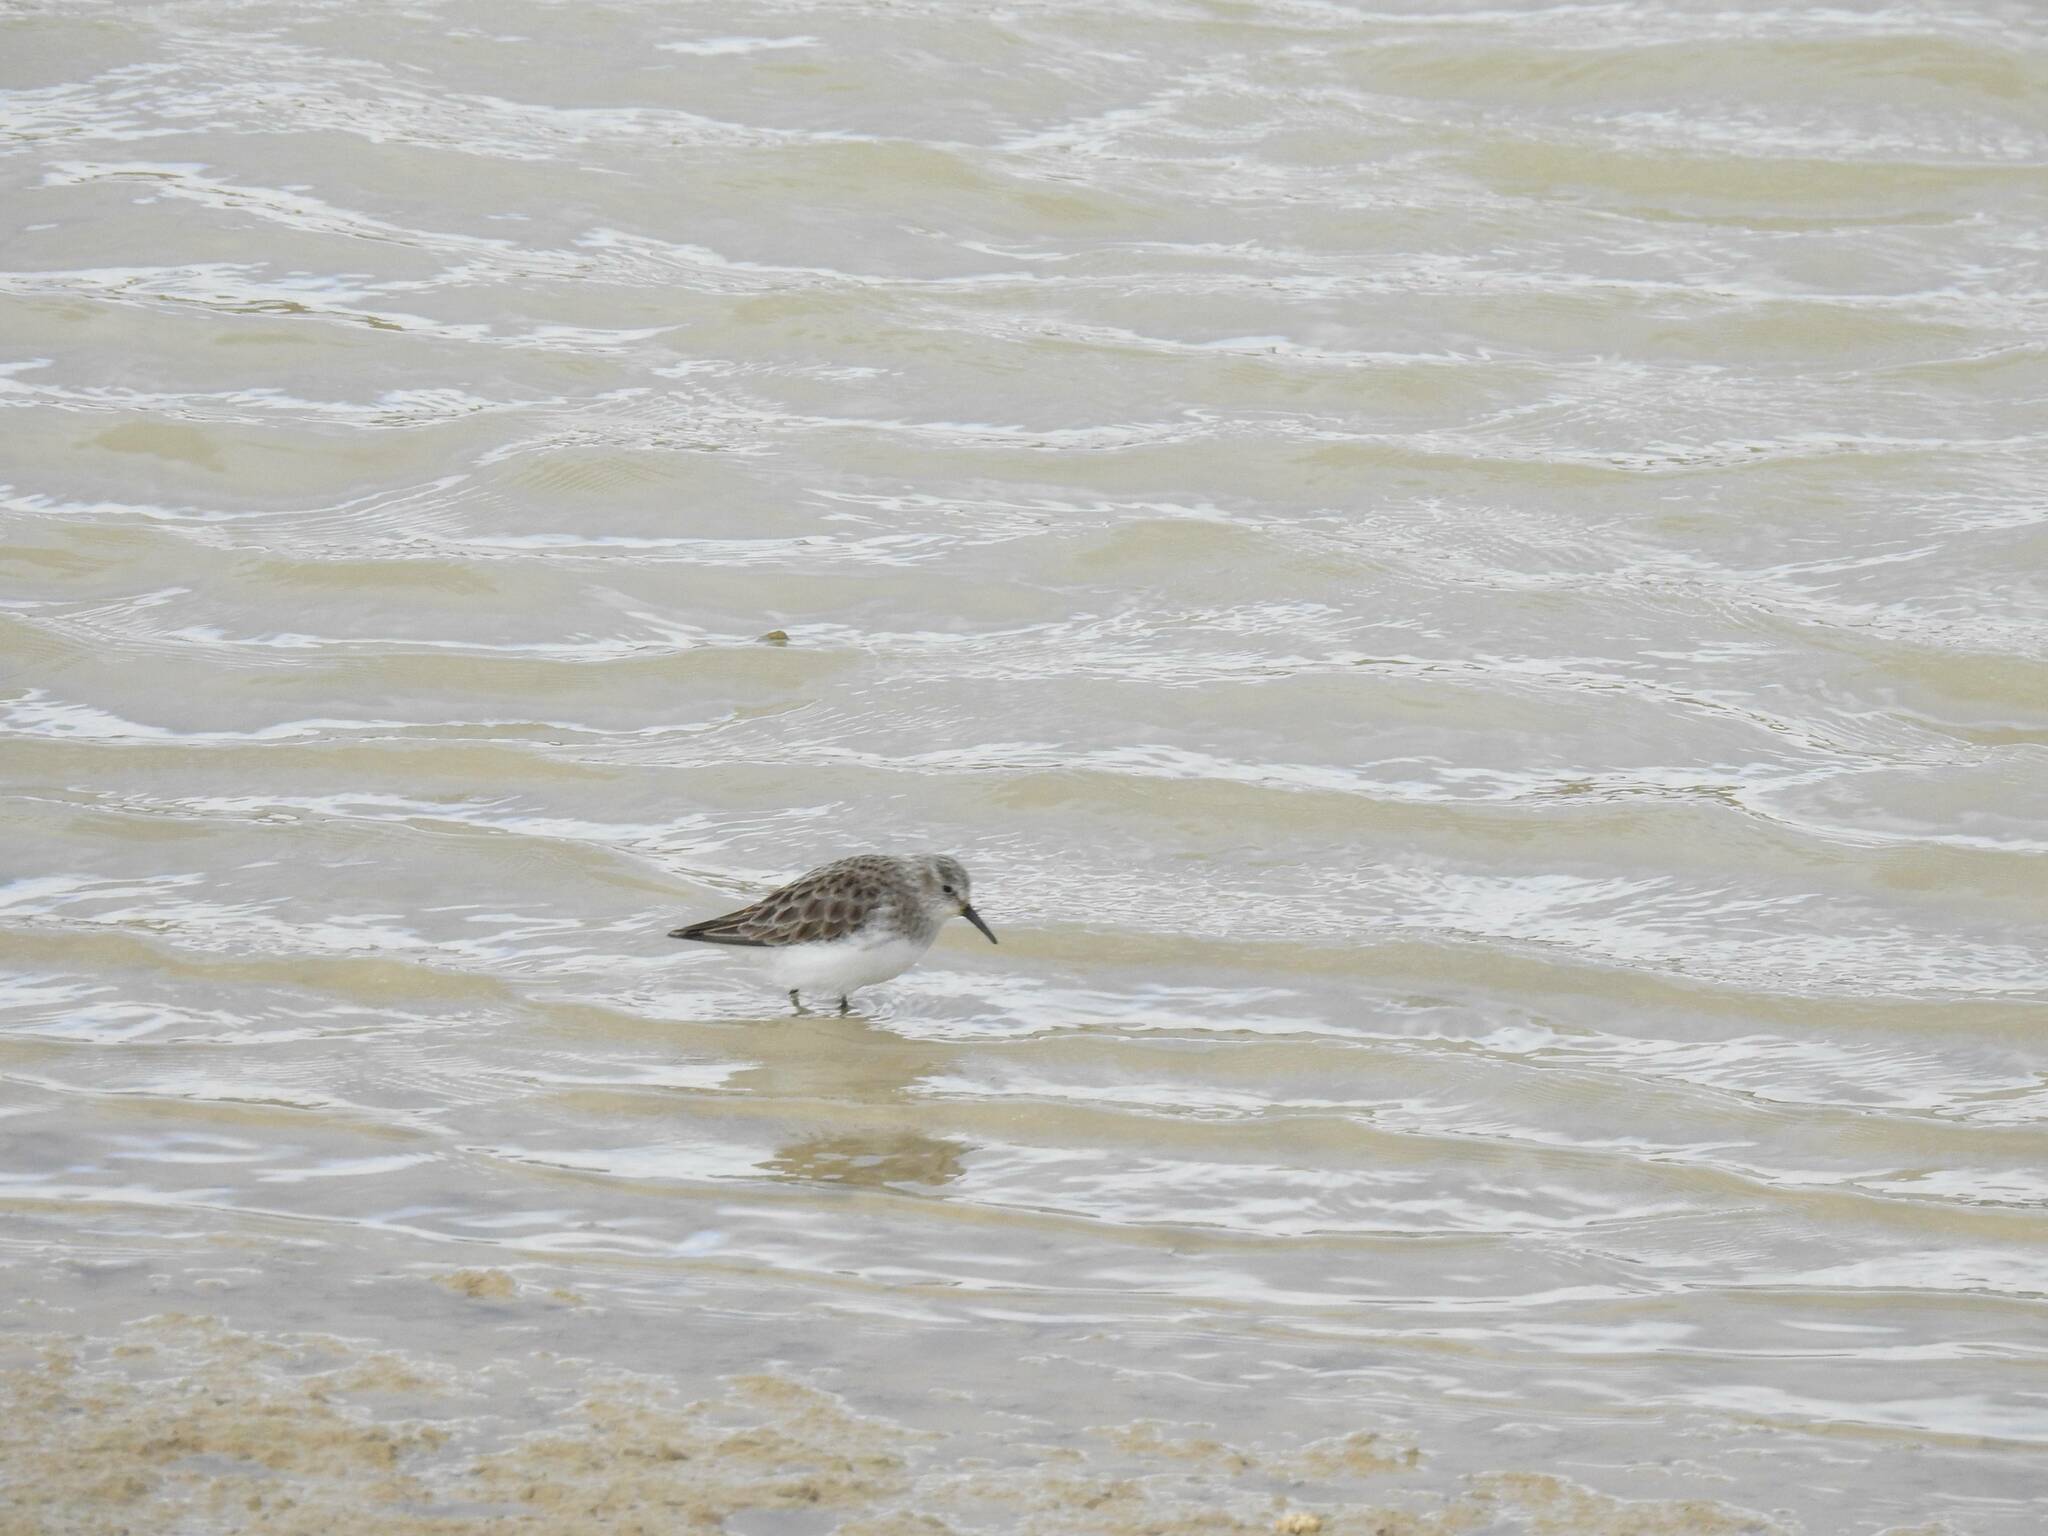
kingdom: Animalia
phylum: Chordata
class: Aves
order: Charadriiformes
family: Scolopacidae
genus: Calidris
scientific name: Calidris minuta
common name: Little stint
